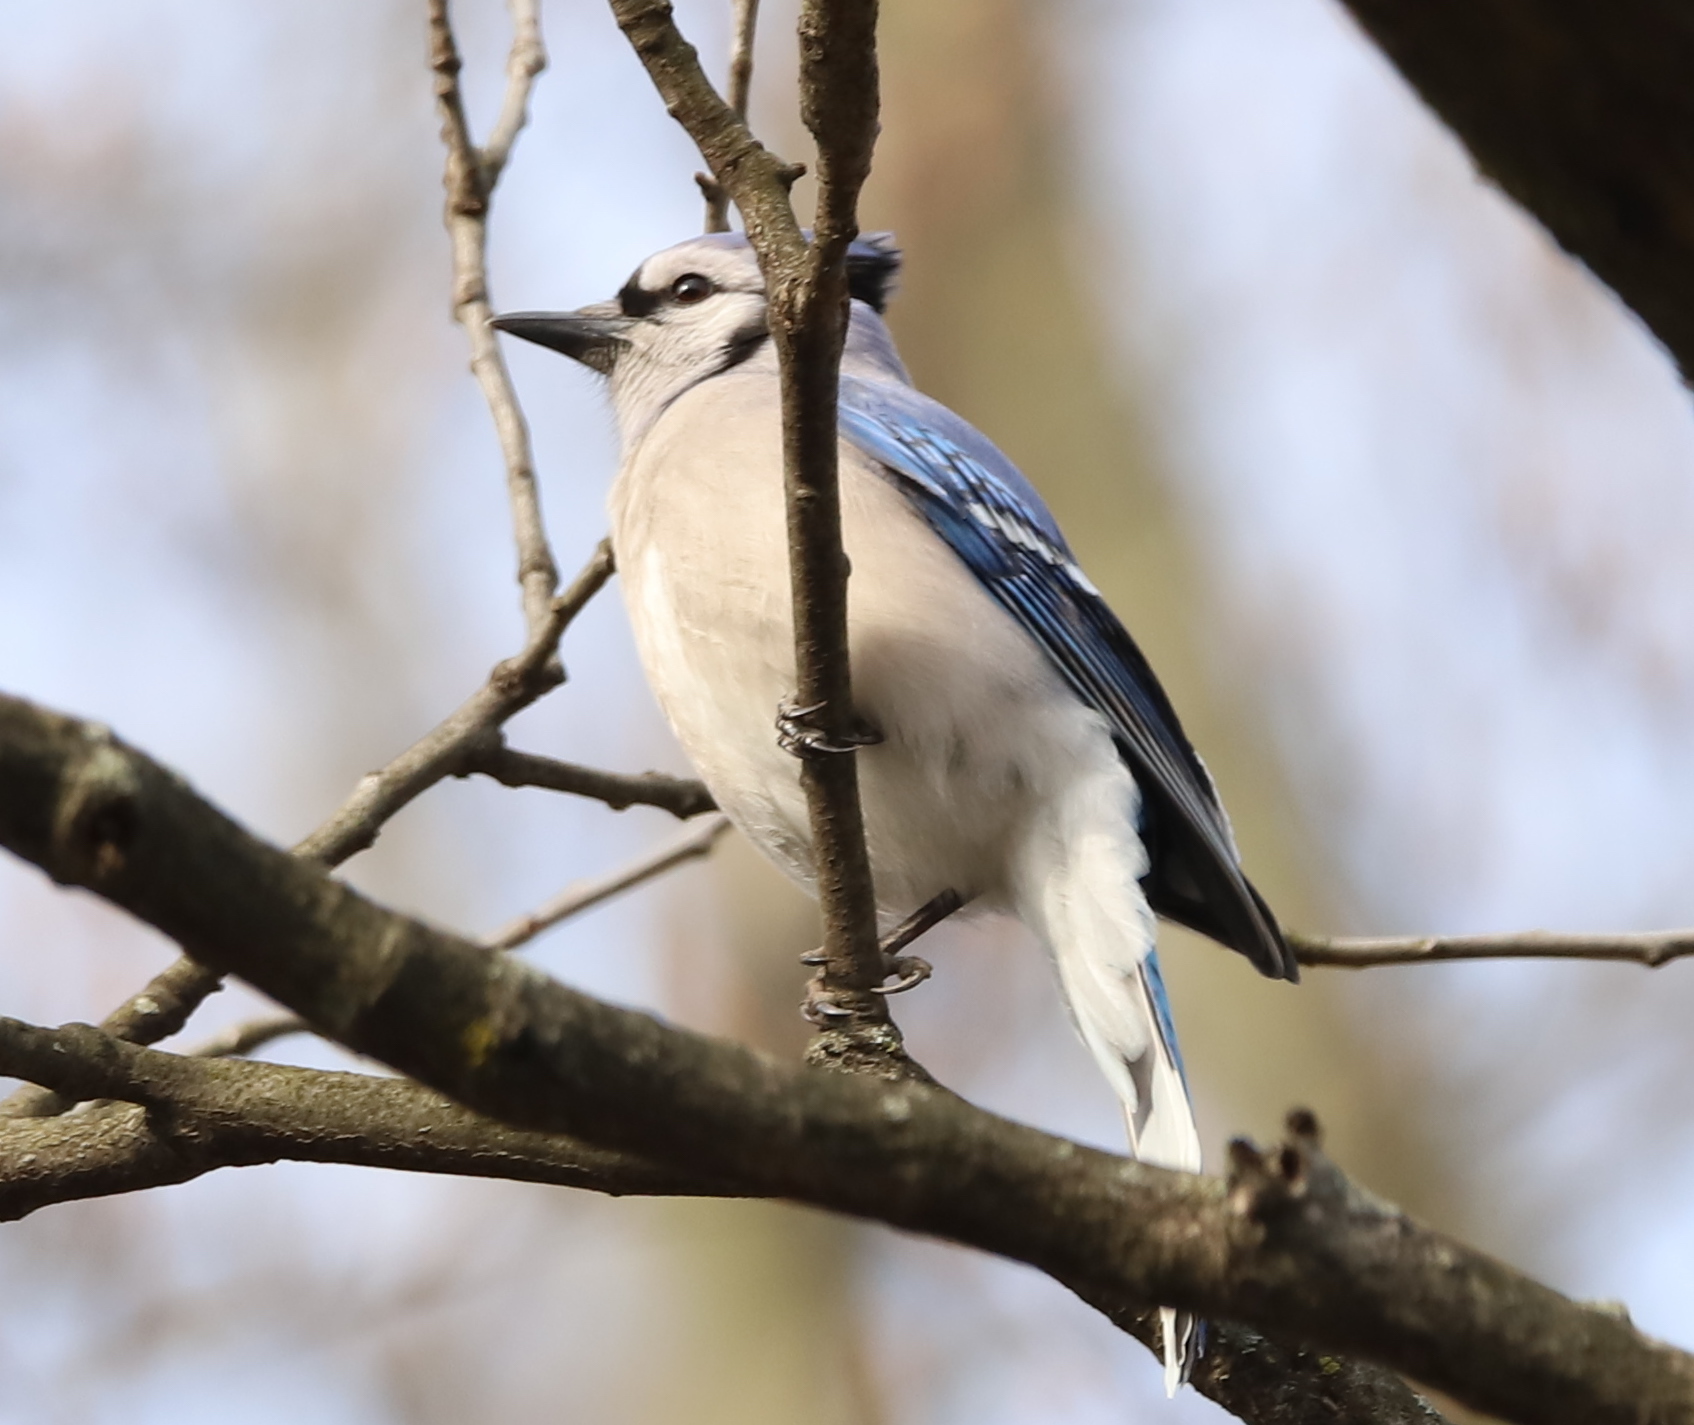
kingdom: Animalia
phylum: Chordata
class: Aves
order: Passeriformes
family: Corvidae
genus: Cyanocitta
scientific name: Cyanocitta cristata
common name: Blue jay
